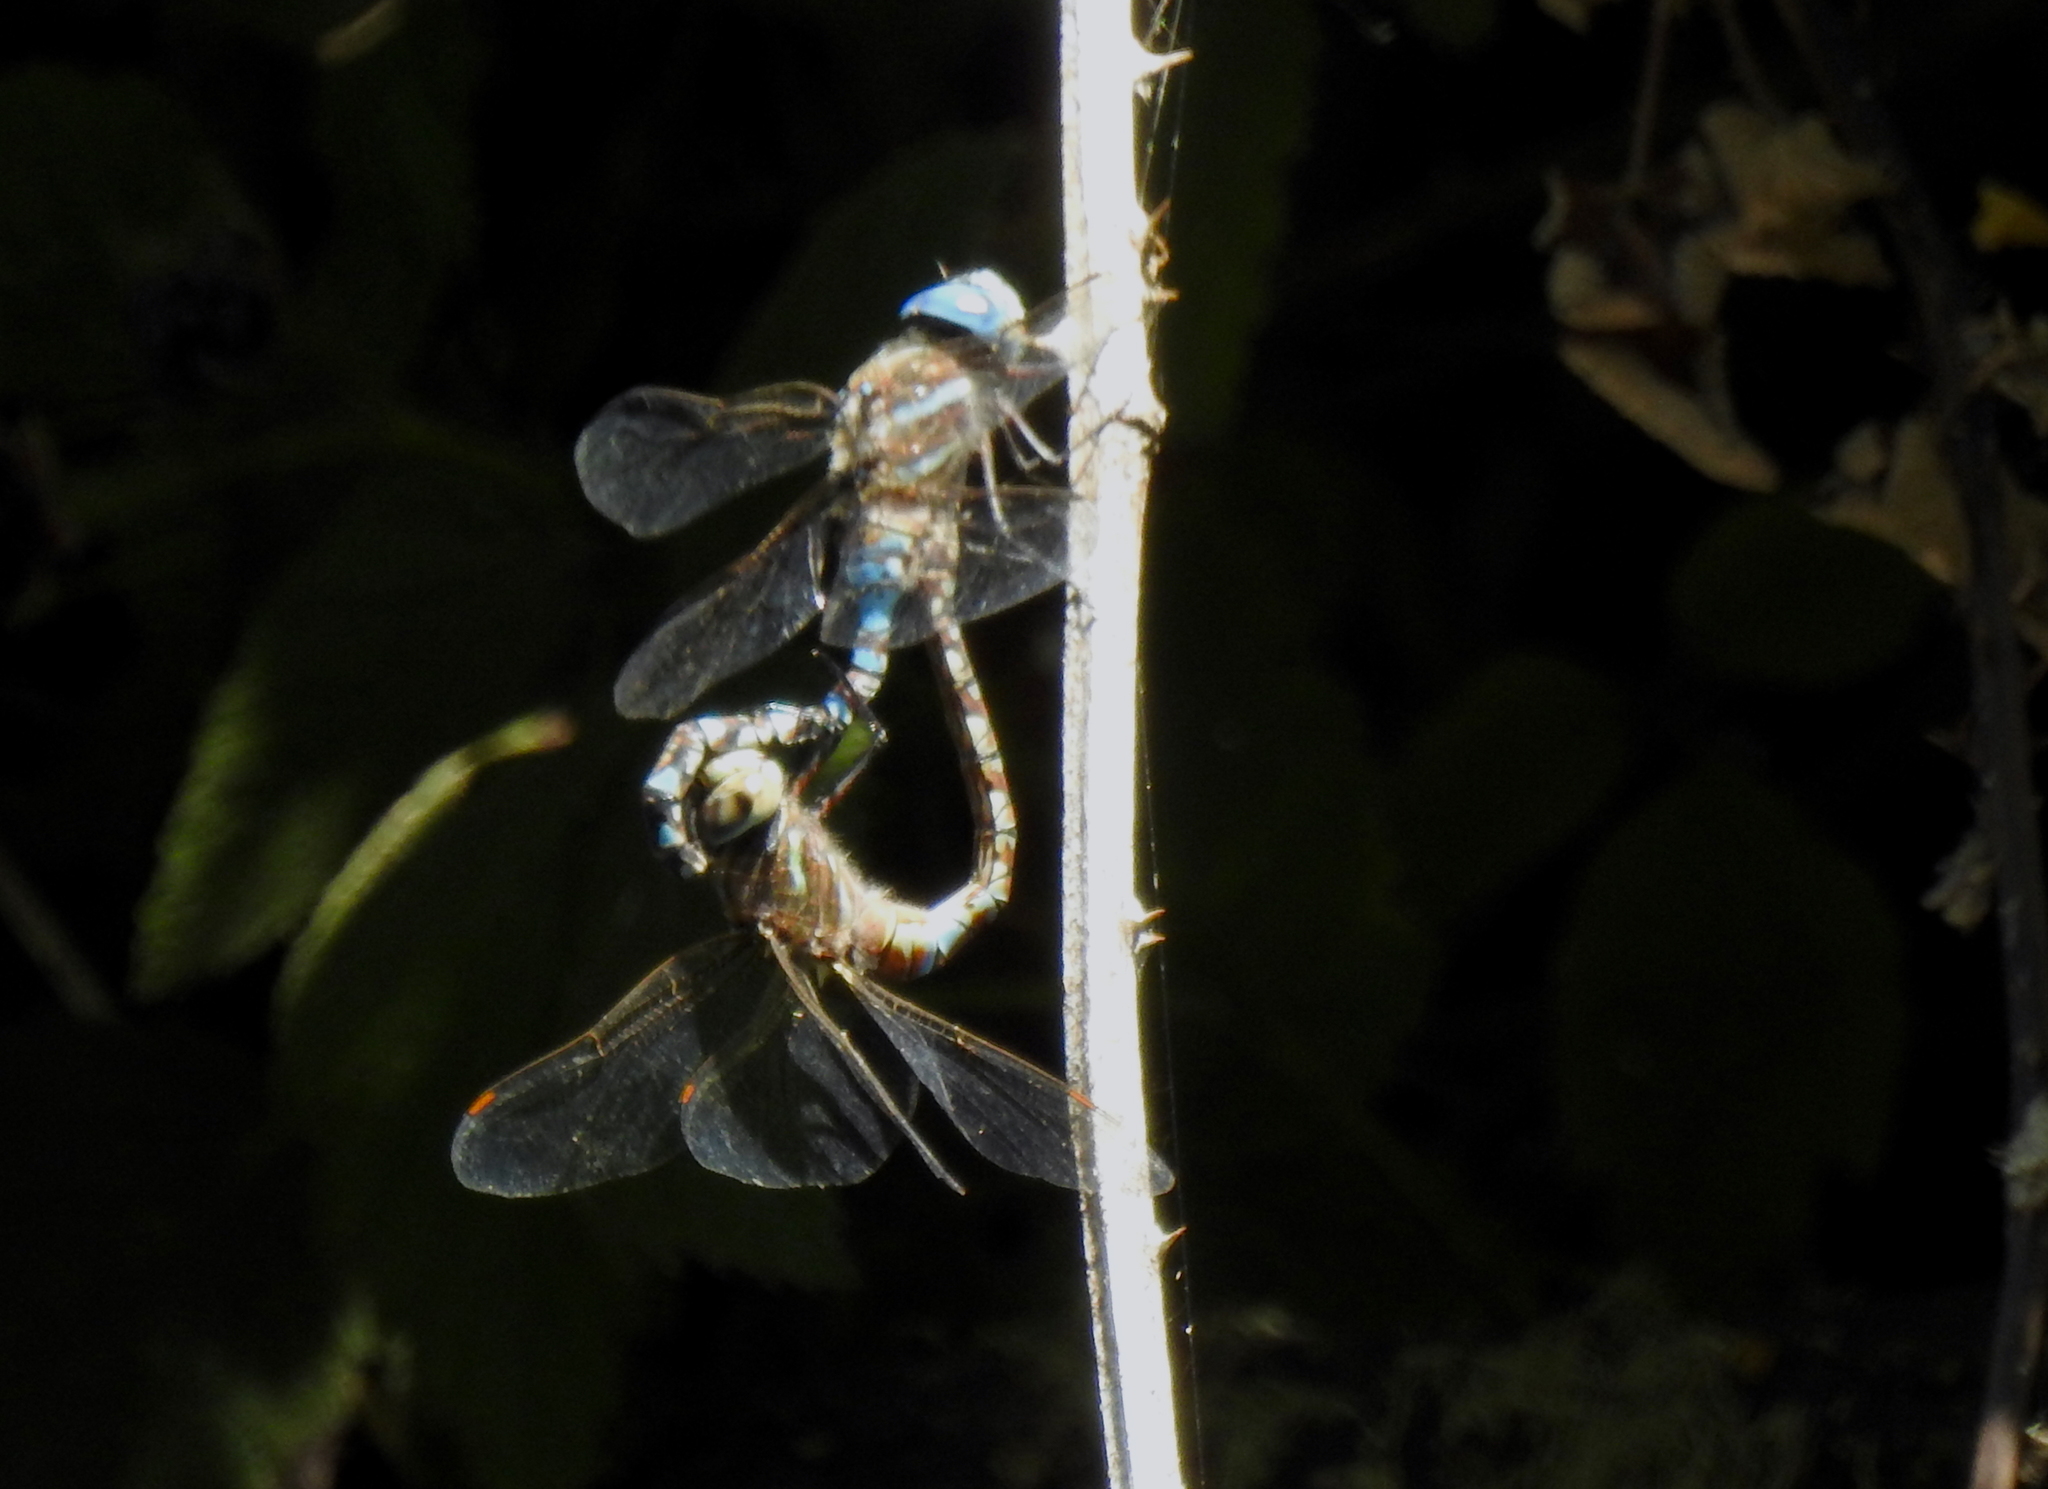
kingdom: Animalia
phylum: Arthropoda
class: Insecta
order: Odonata
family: Aeshnidae
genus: Rhionaeschna
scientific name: Rhionaeschna multicolor
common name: Blue-eyed darner
